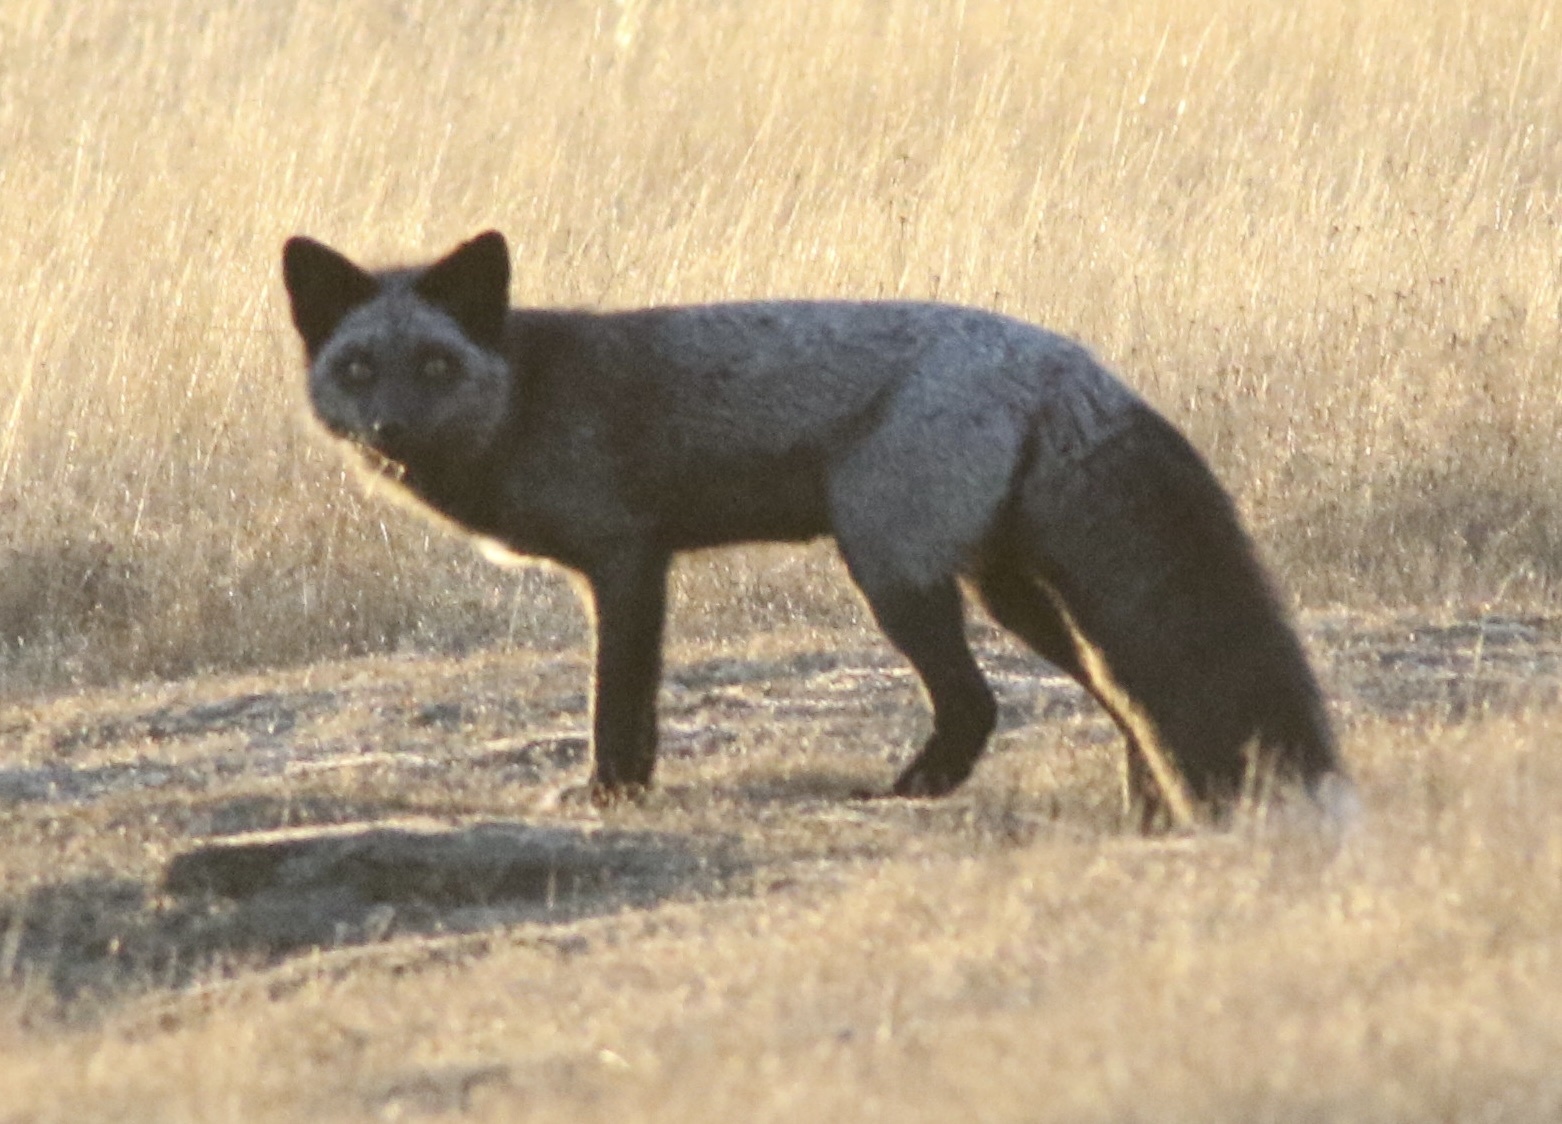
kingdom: Animalia
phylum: Chordata
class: Mammalia
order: Carnivora
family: Canidae
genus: Vulpes
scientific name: Vulpes vulpes
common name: Red fox
